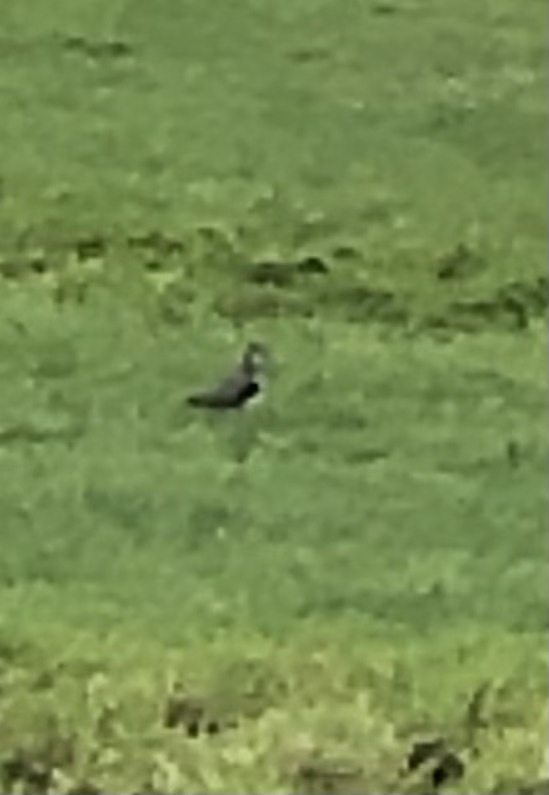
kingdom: Animalia
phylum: Chordata
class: Aves
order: Charadriiformes
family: Charadriidae
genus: Vanellus
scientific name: Vanellus vanellus
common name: Northern lapwing
